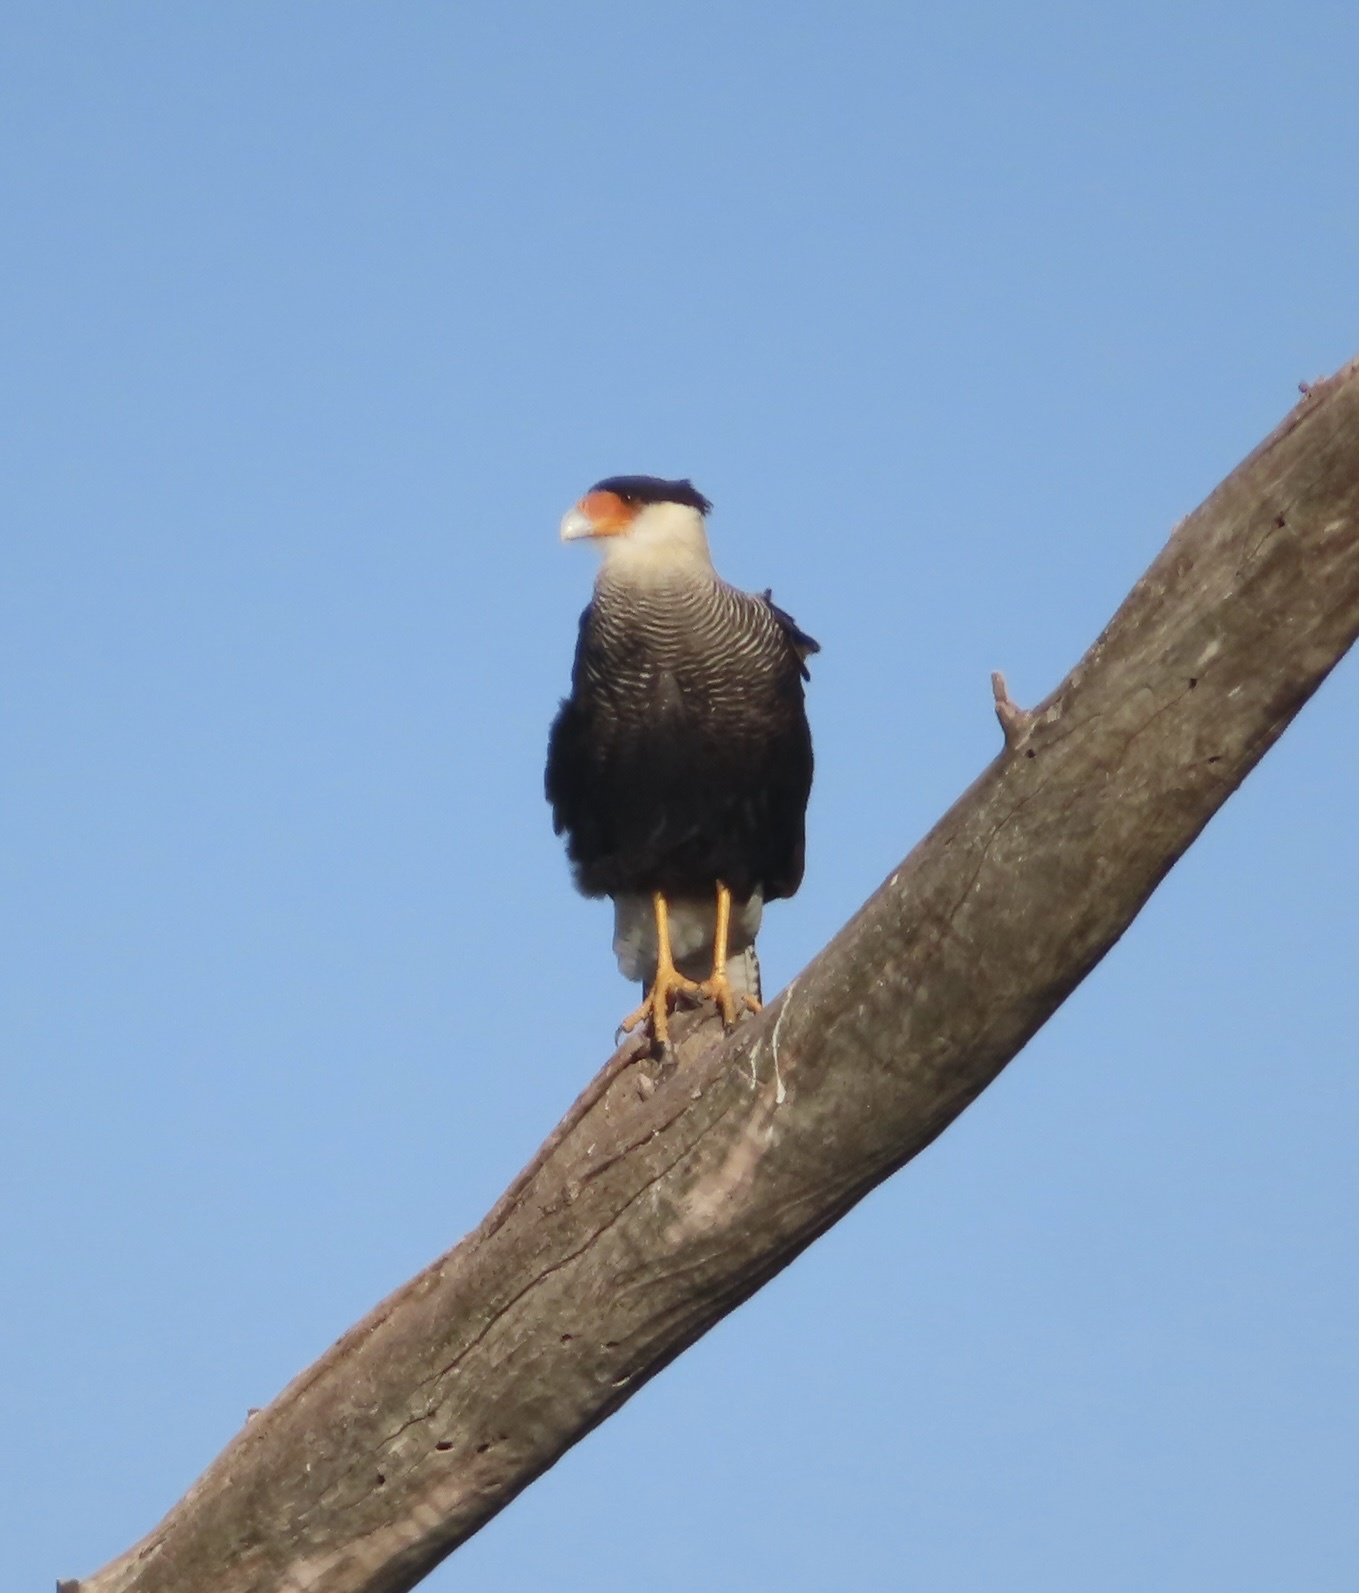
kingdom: Animalia
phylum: Chordata
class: Aves
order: Falconiformes
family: Falconidae
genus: Caracara
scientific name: Caracara plancus
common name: Southern caracara
